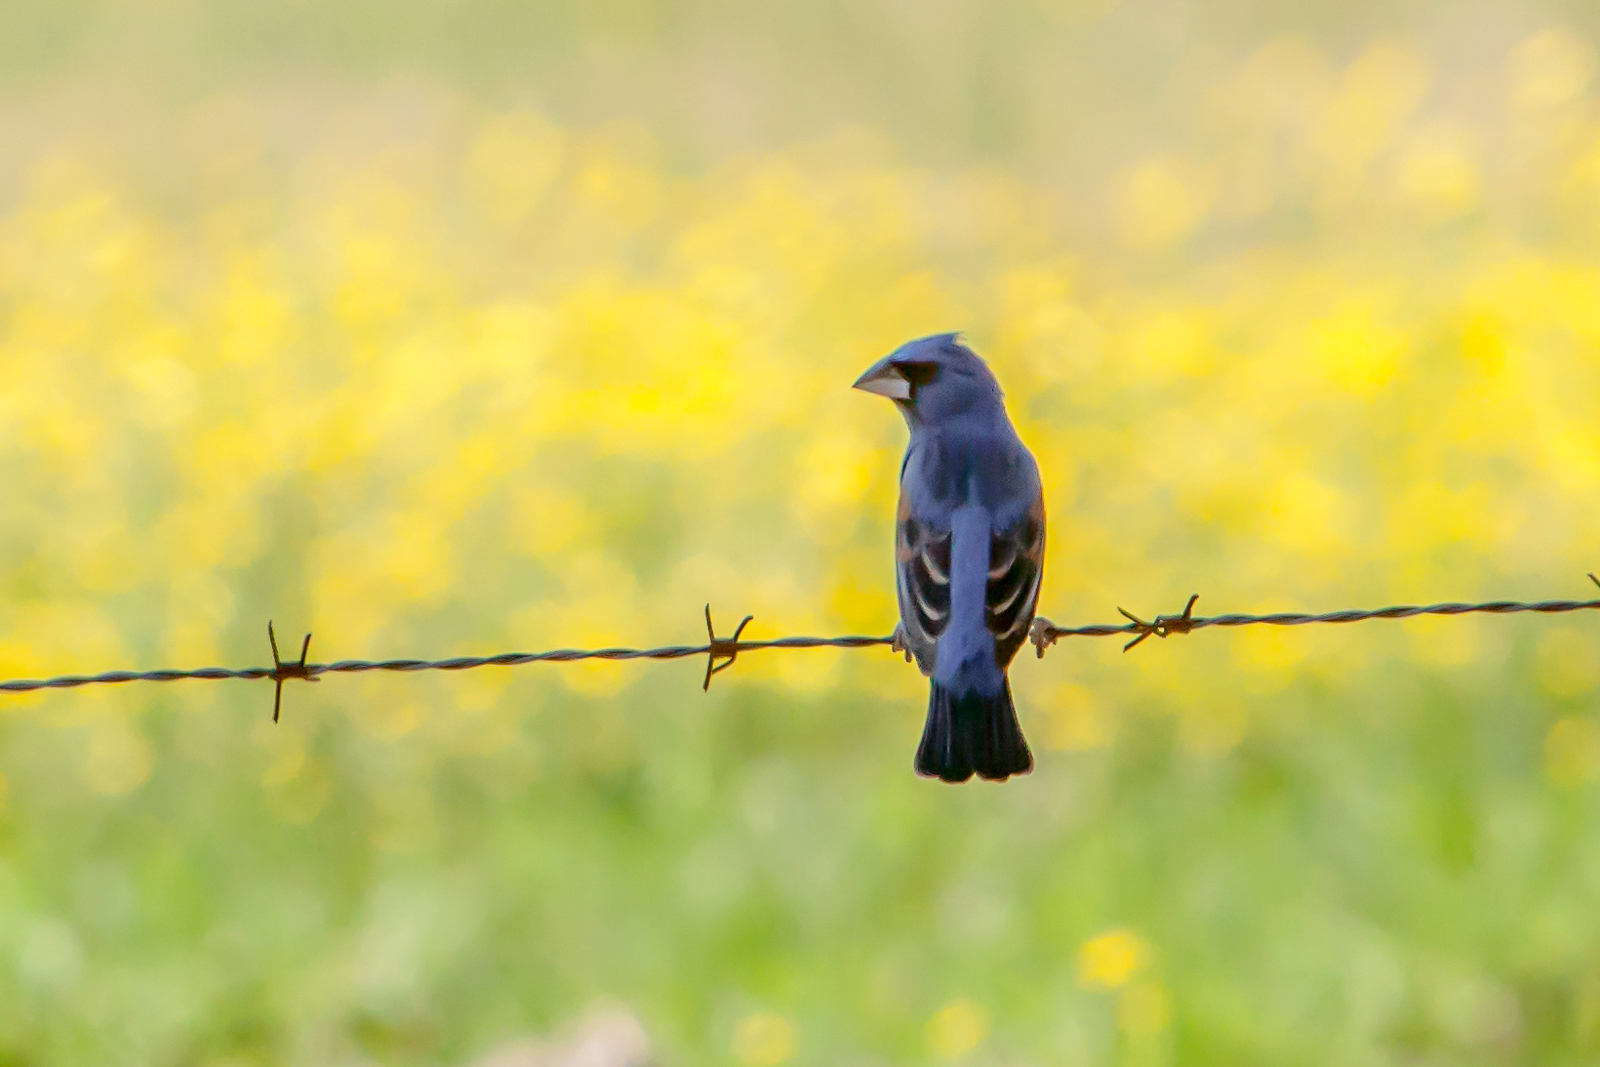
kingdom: Animalia
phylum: Chordata
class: Aves
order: Passeriformes
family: Cardinalidae
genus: Passerina
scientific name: Passerina caerulea
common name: Blue grosbeak
